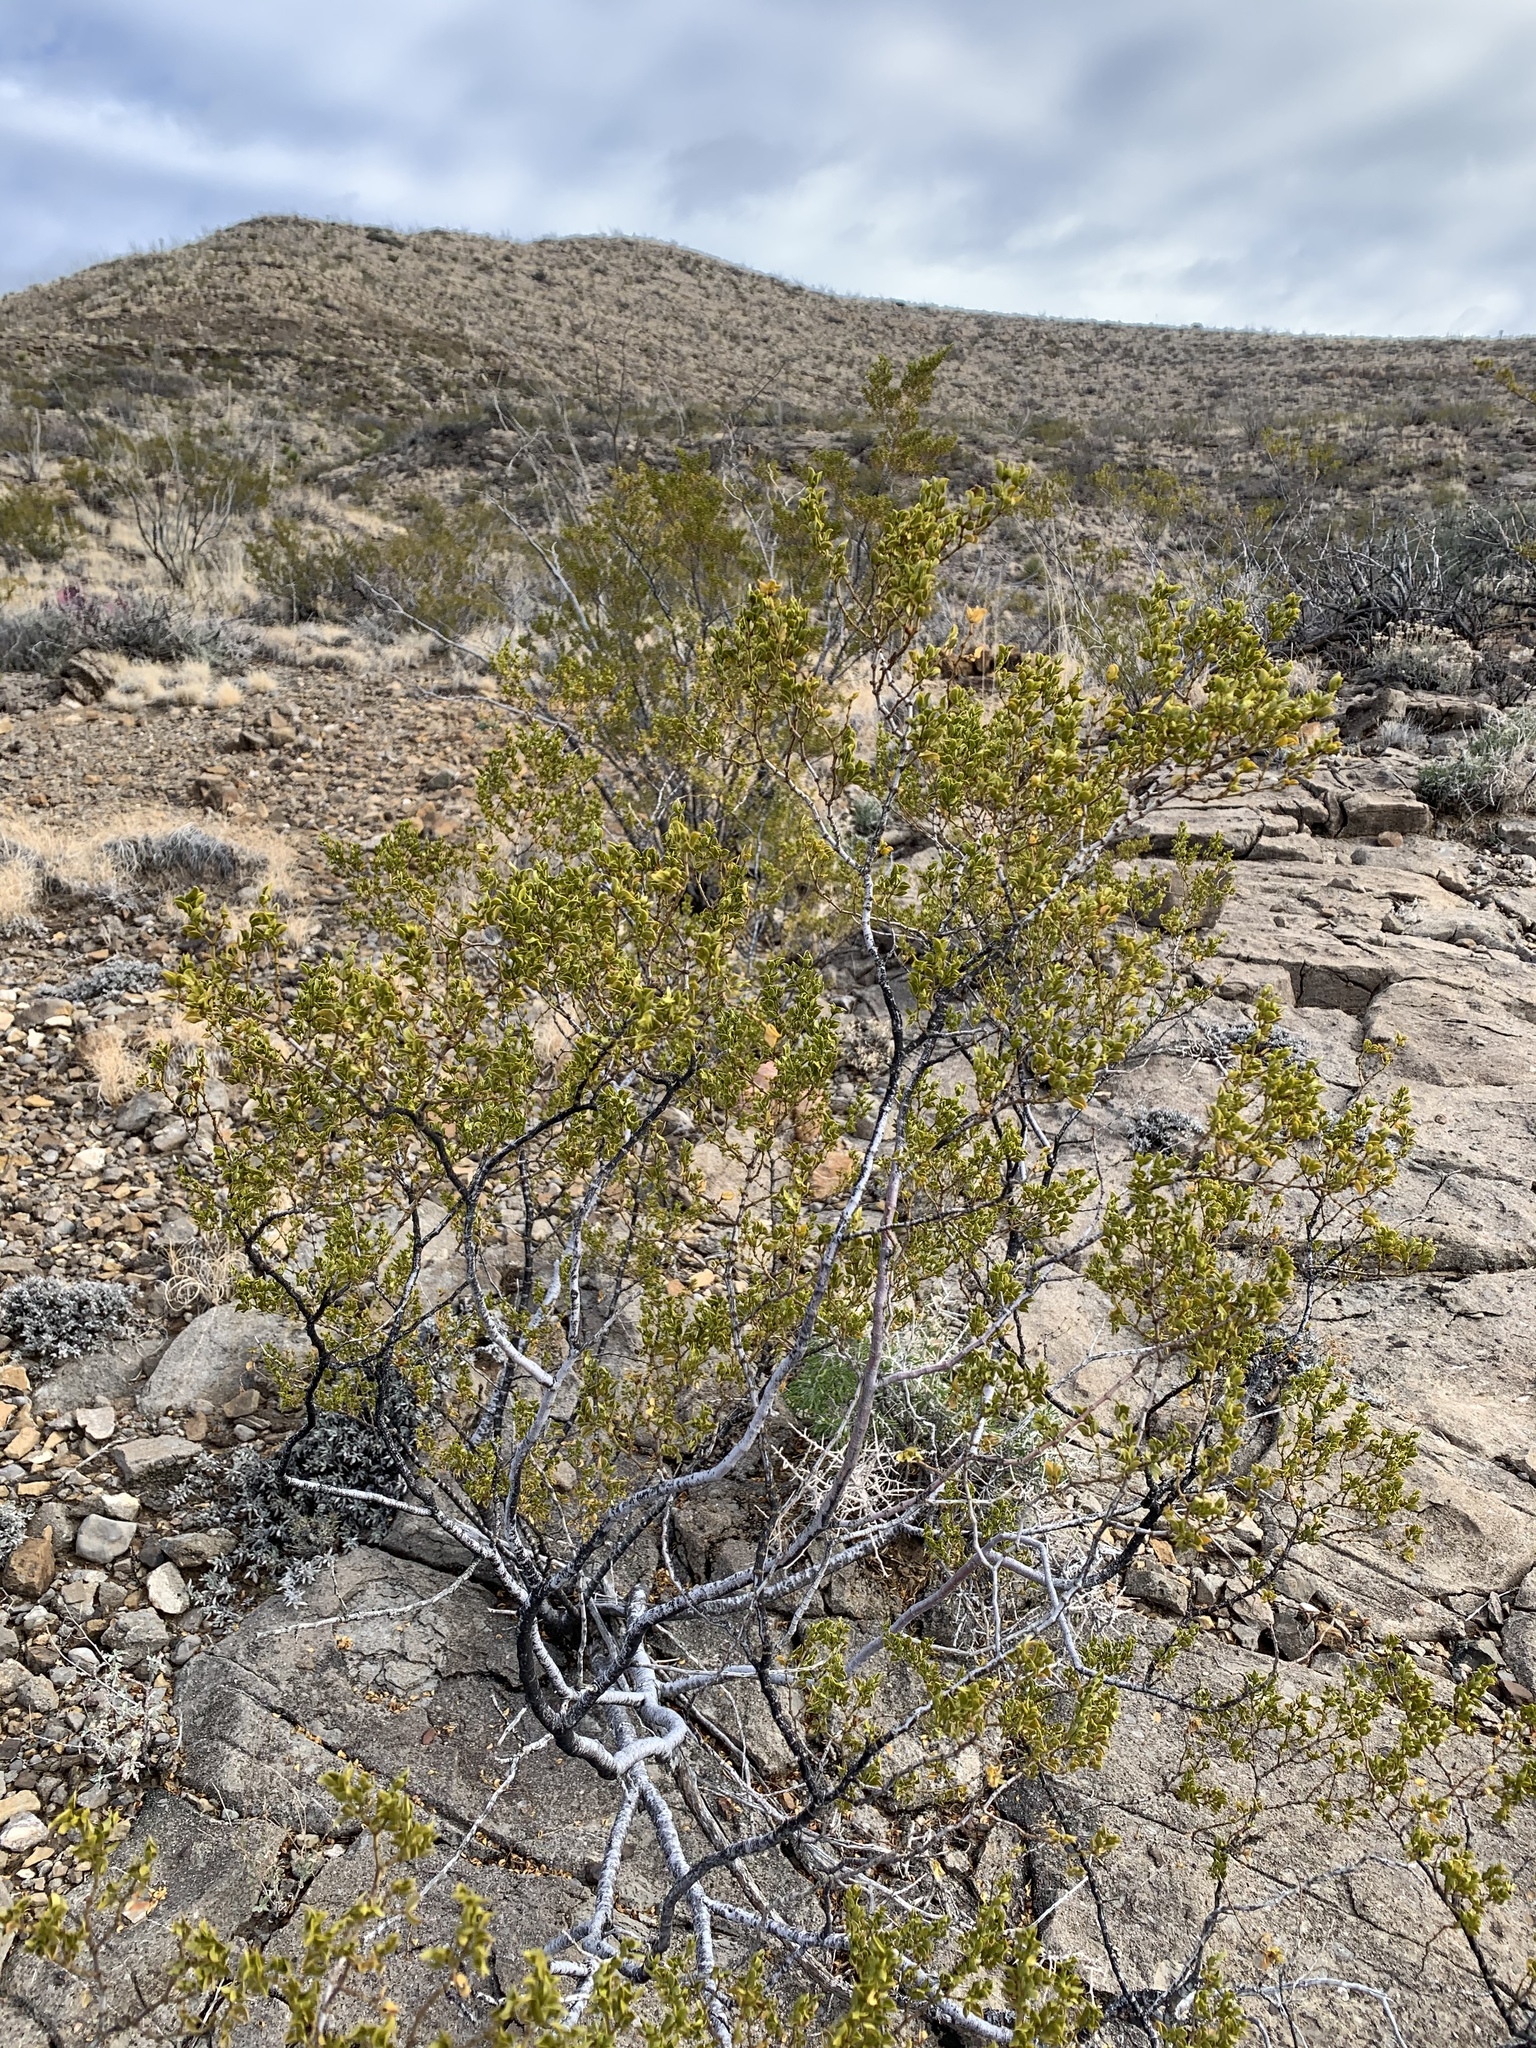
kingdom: Plantae
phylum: Tracheophyta
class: Magnoliopsida
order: Zygophyllales
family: Zygophyllaceae
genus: Larrea
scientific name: Larrea tridentata
